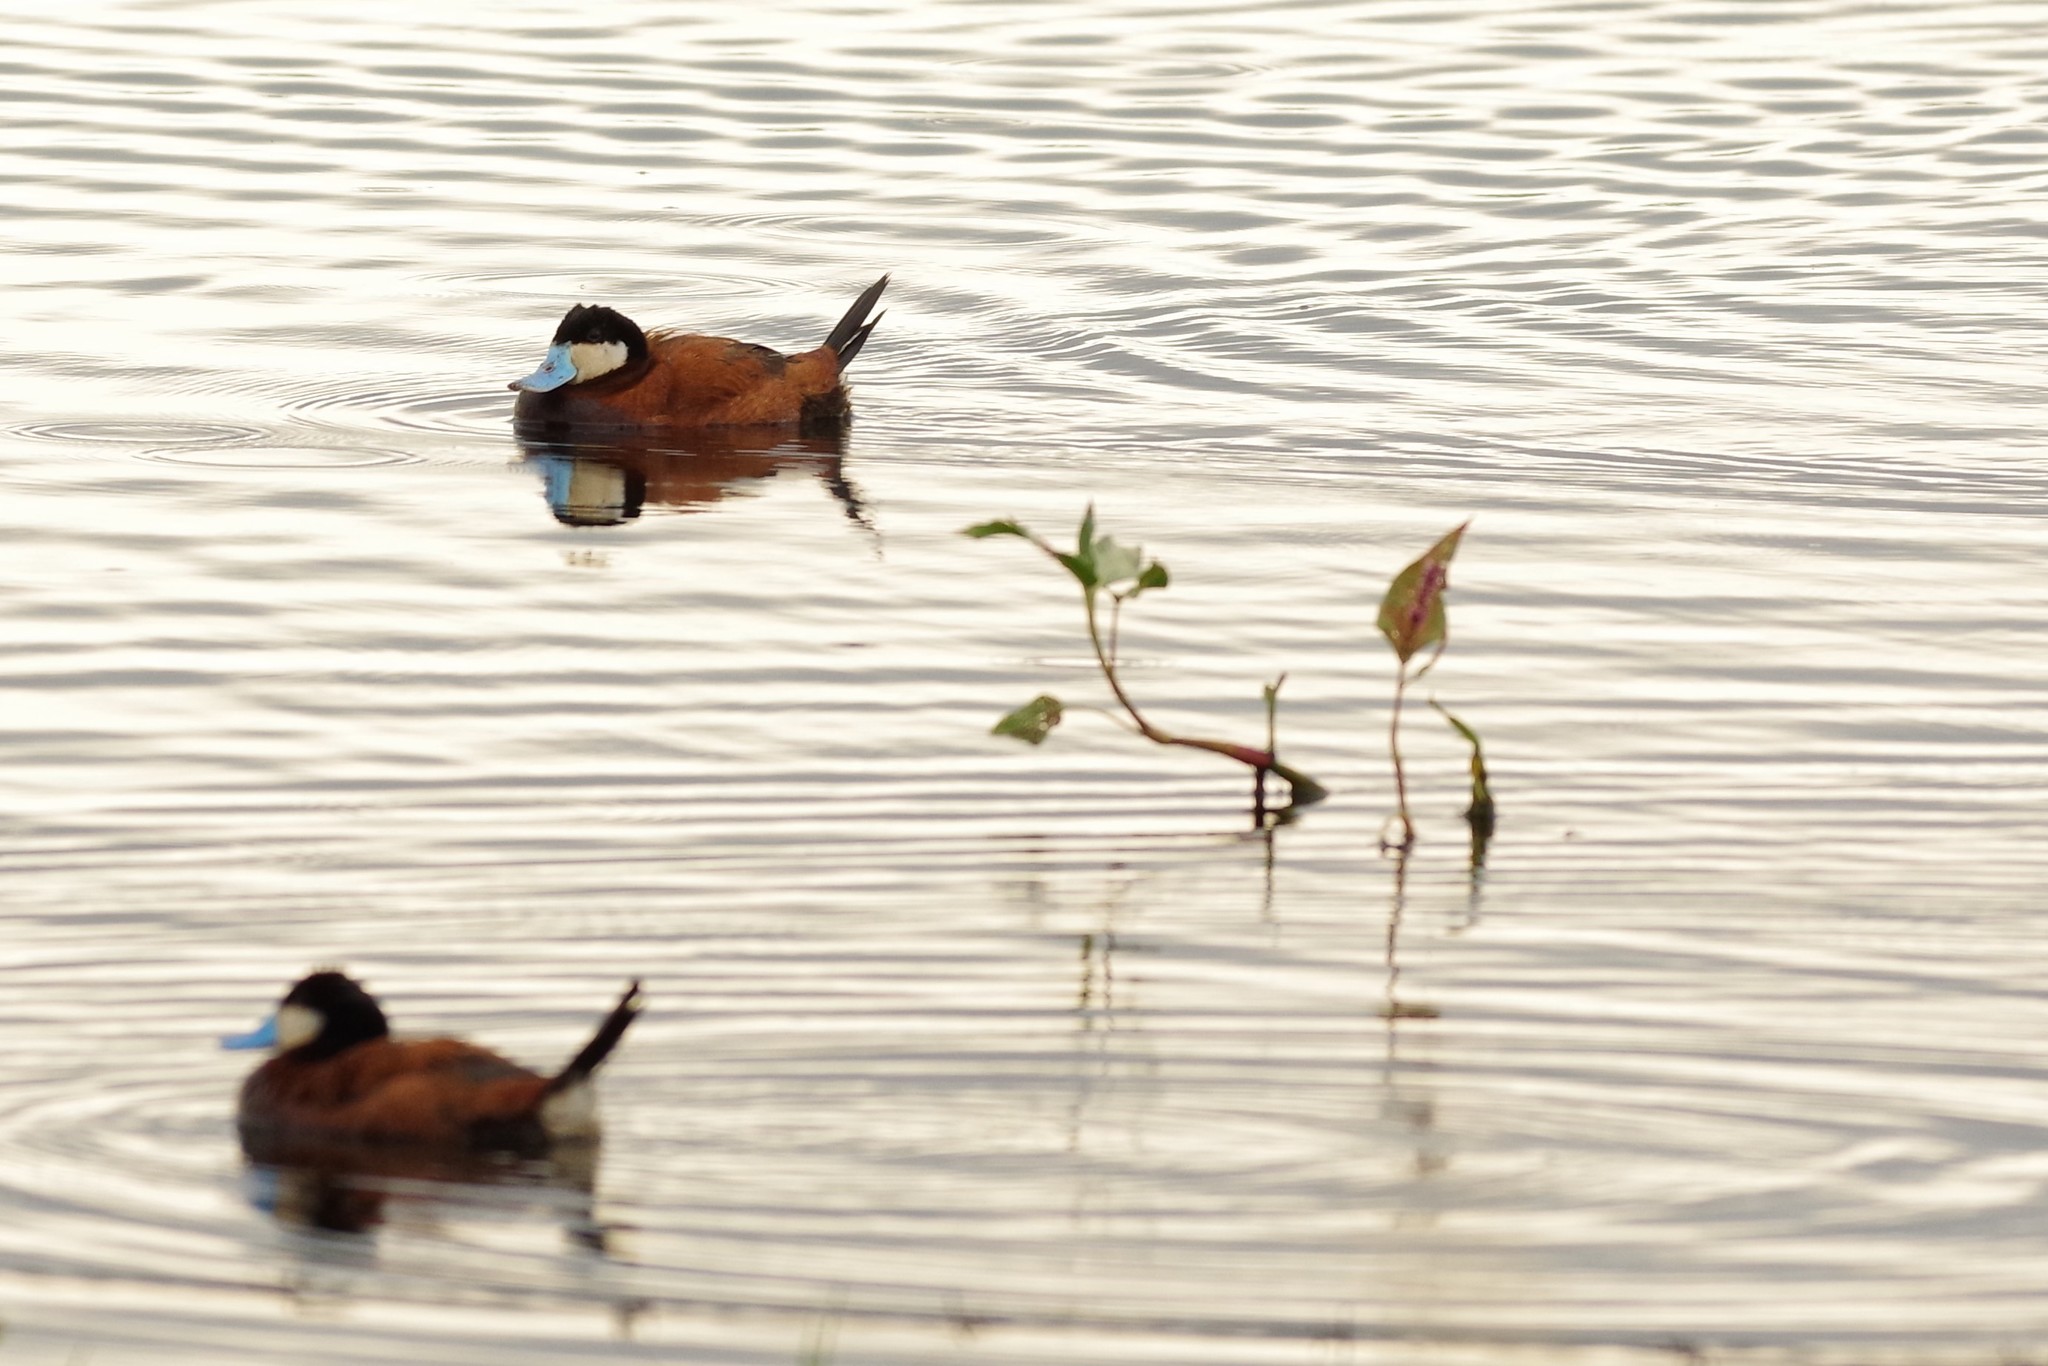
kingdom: Animalia
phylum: Chordata
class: Aves
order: Anseriformes
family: Anatidae
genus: Oxyura
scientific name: Oxyura jamaicensis
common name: Ruddy duck
